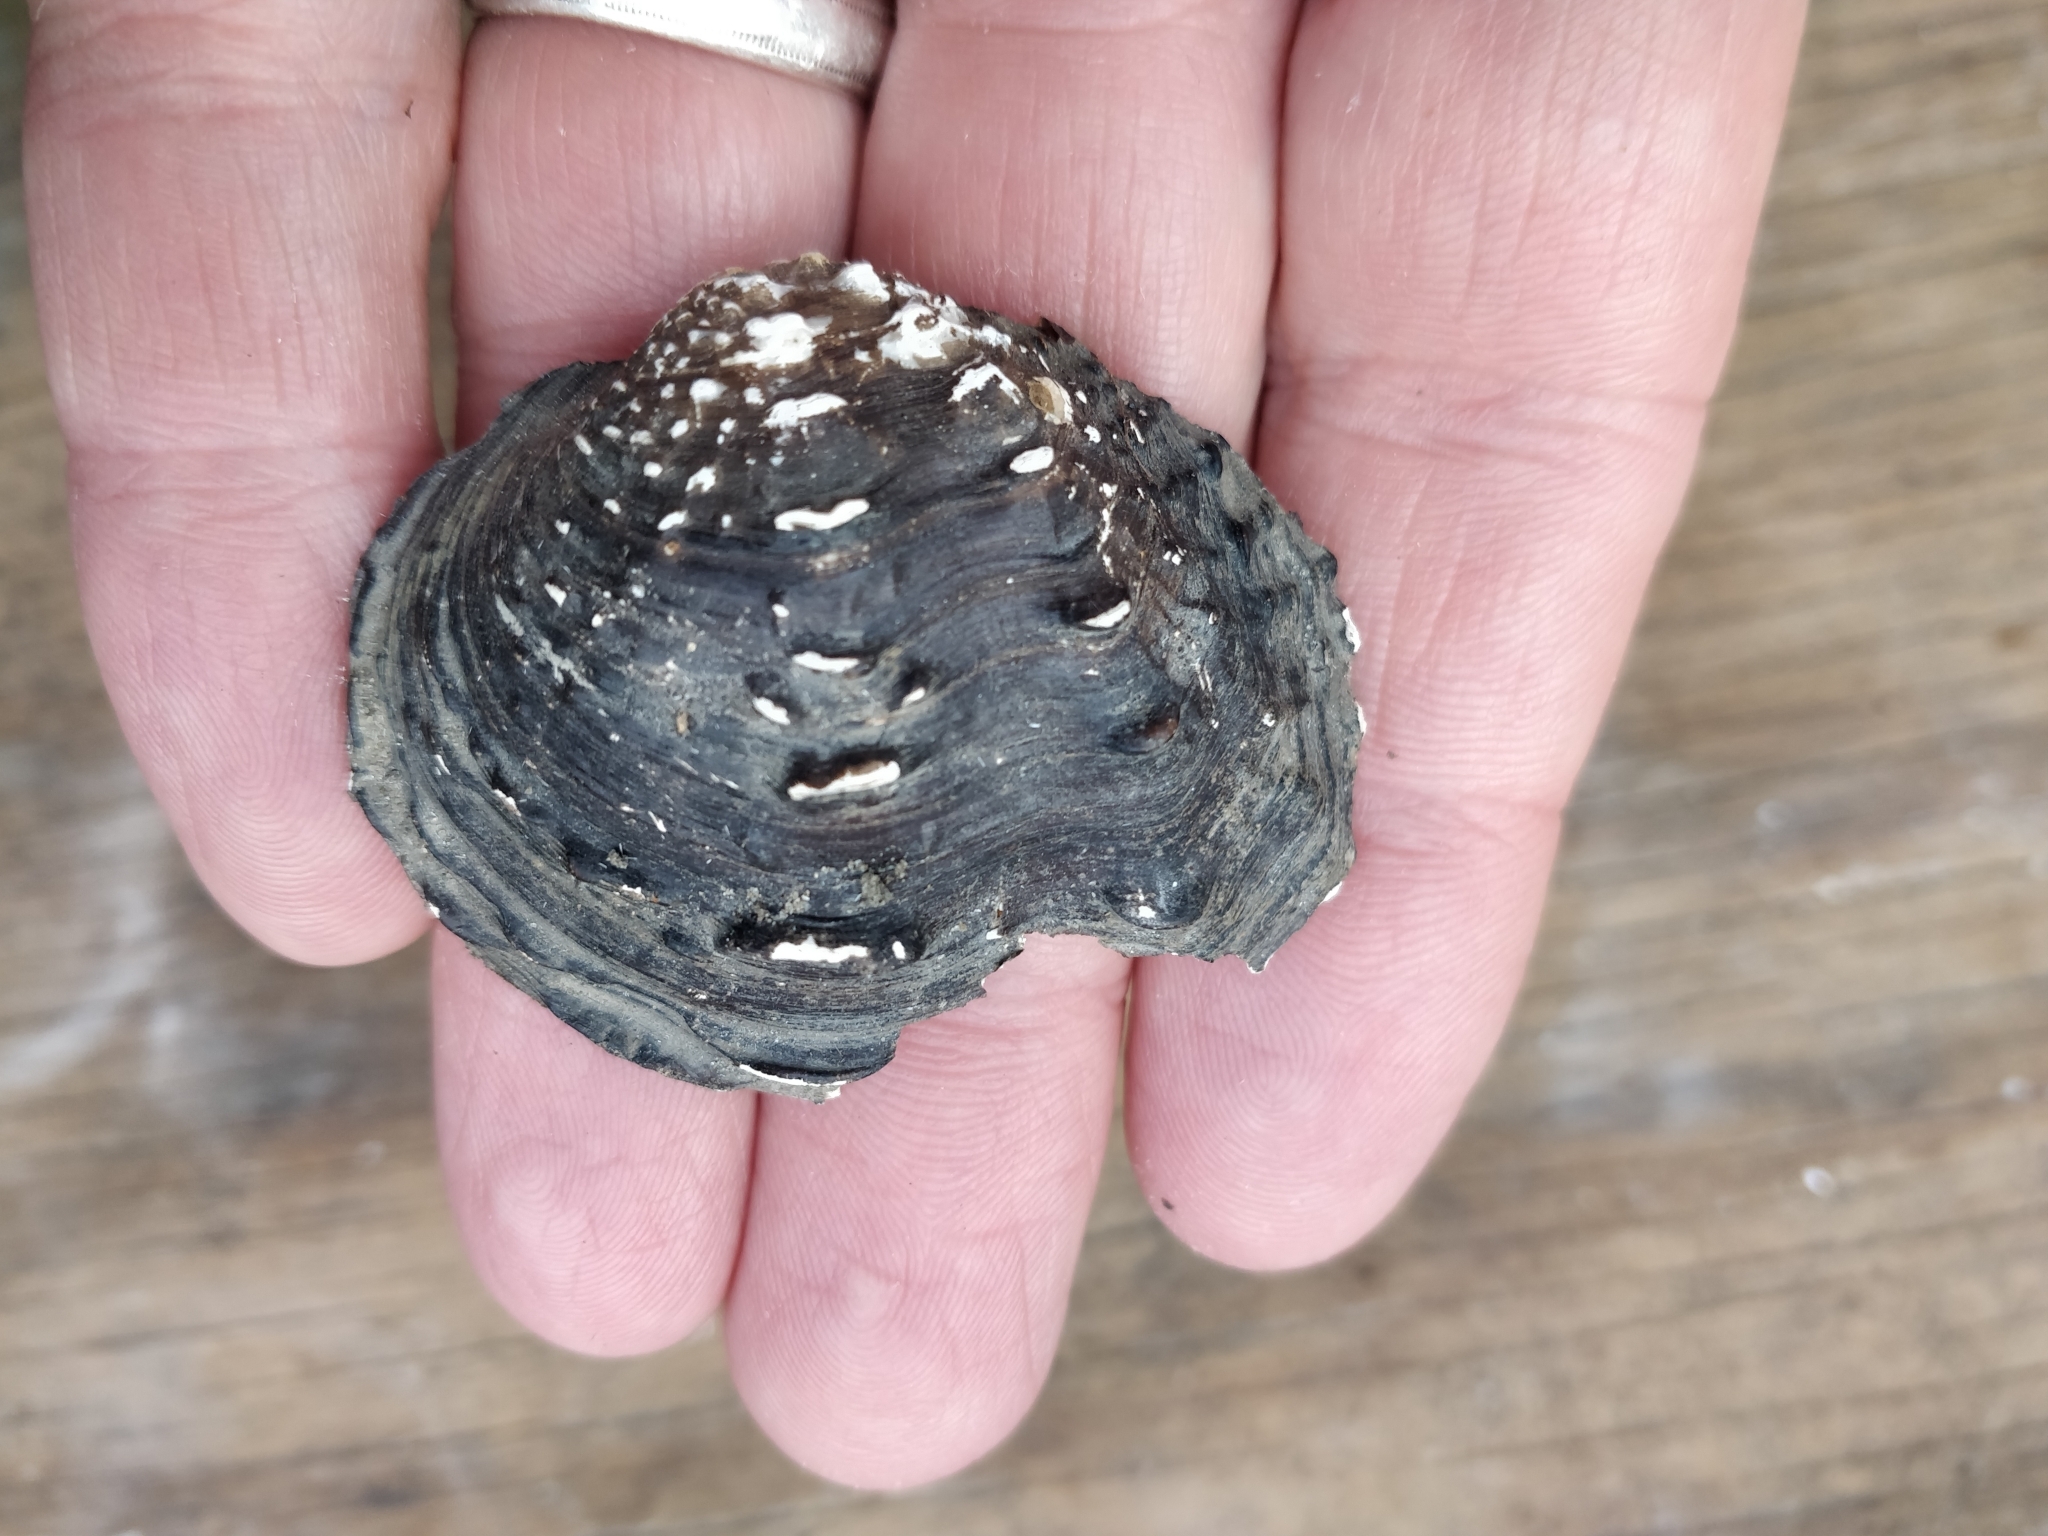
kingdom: Animalia
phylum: Mollusca
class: Bivalvia
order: Unionida
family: Unionidae
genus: Tritogonia
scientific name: Tritogonia nobilis
